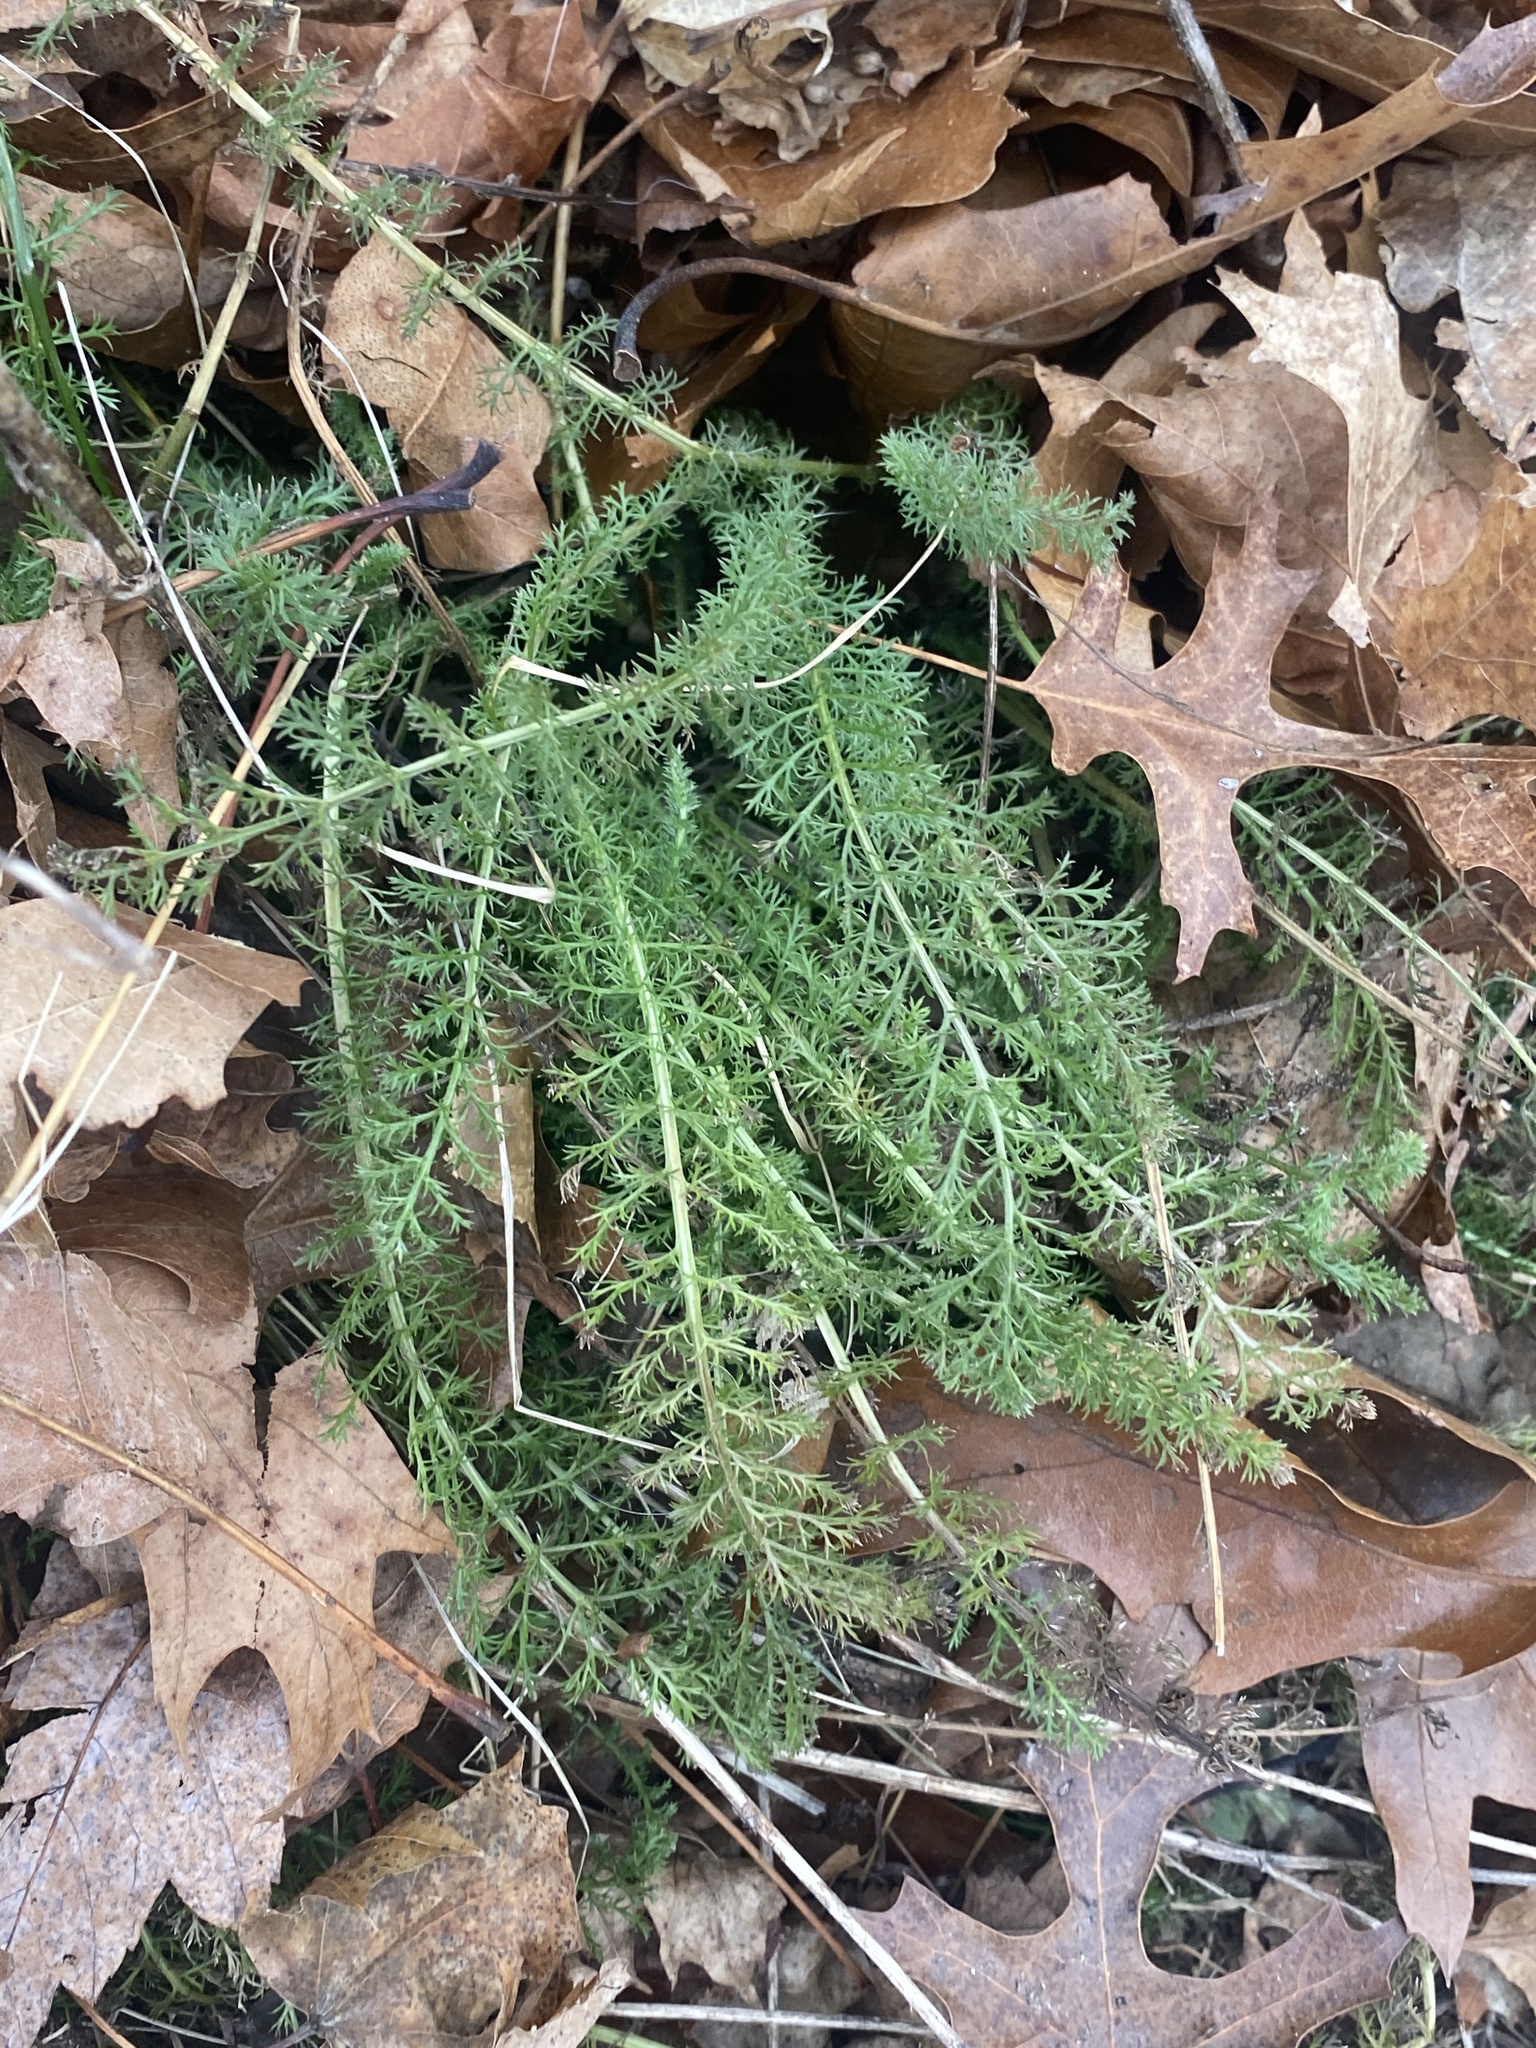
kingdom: Plantae
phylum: Tracheophyta
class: Magnoliopsida
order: Asterales
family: Asteraceae
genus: Achillea
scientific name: Achillea millefolium
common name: Yarrow
